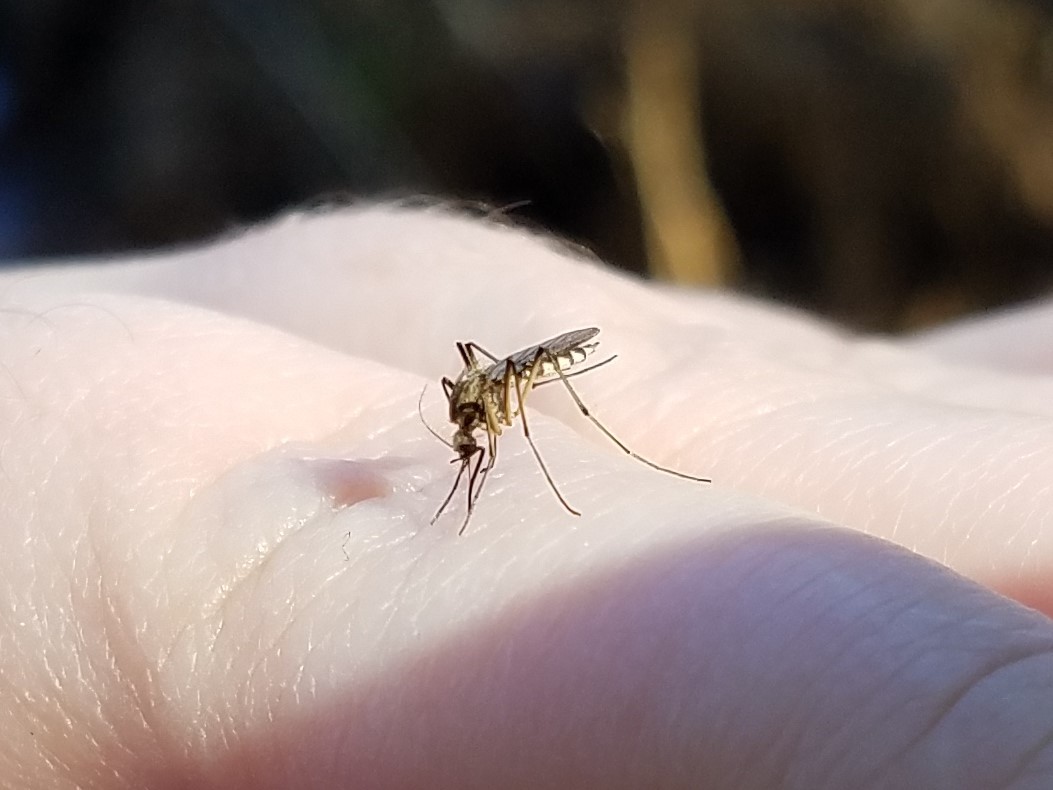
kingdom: Animalia
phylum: Arthropoda
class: Insecta
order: Diptera
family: Culicidae
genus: Aedes
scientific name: Aedes sticticus
